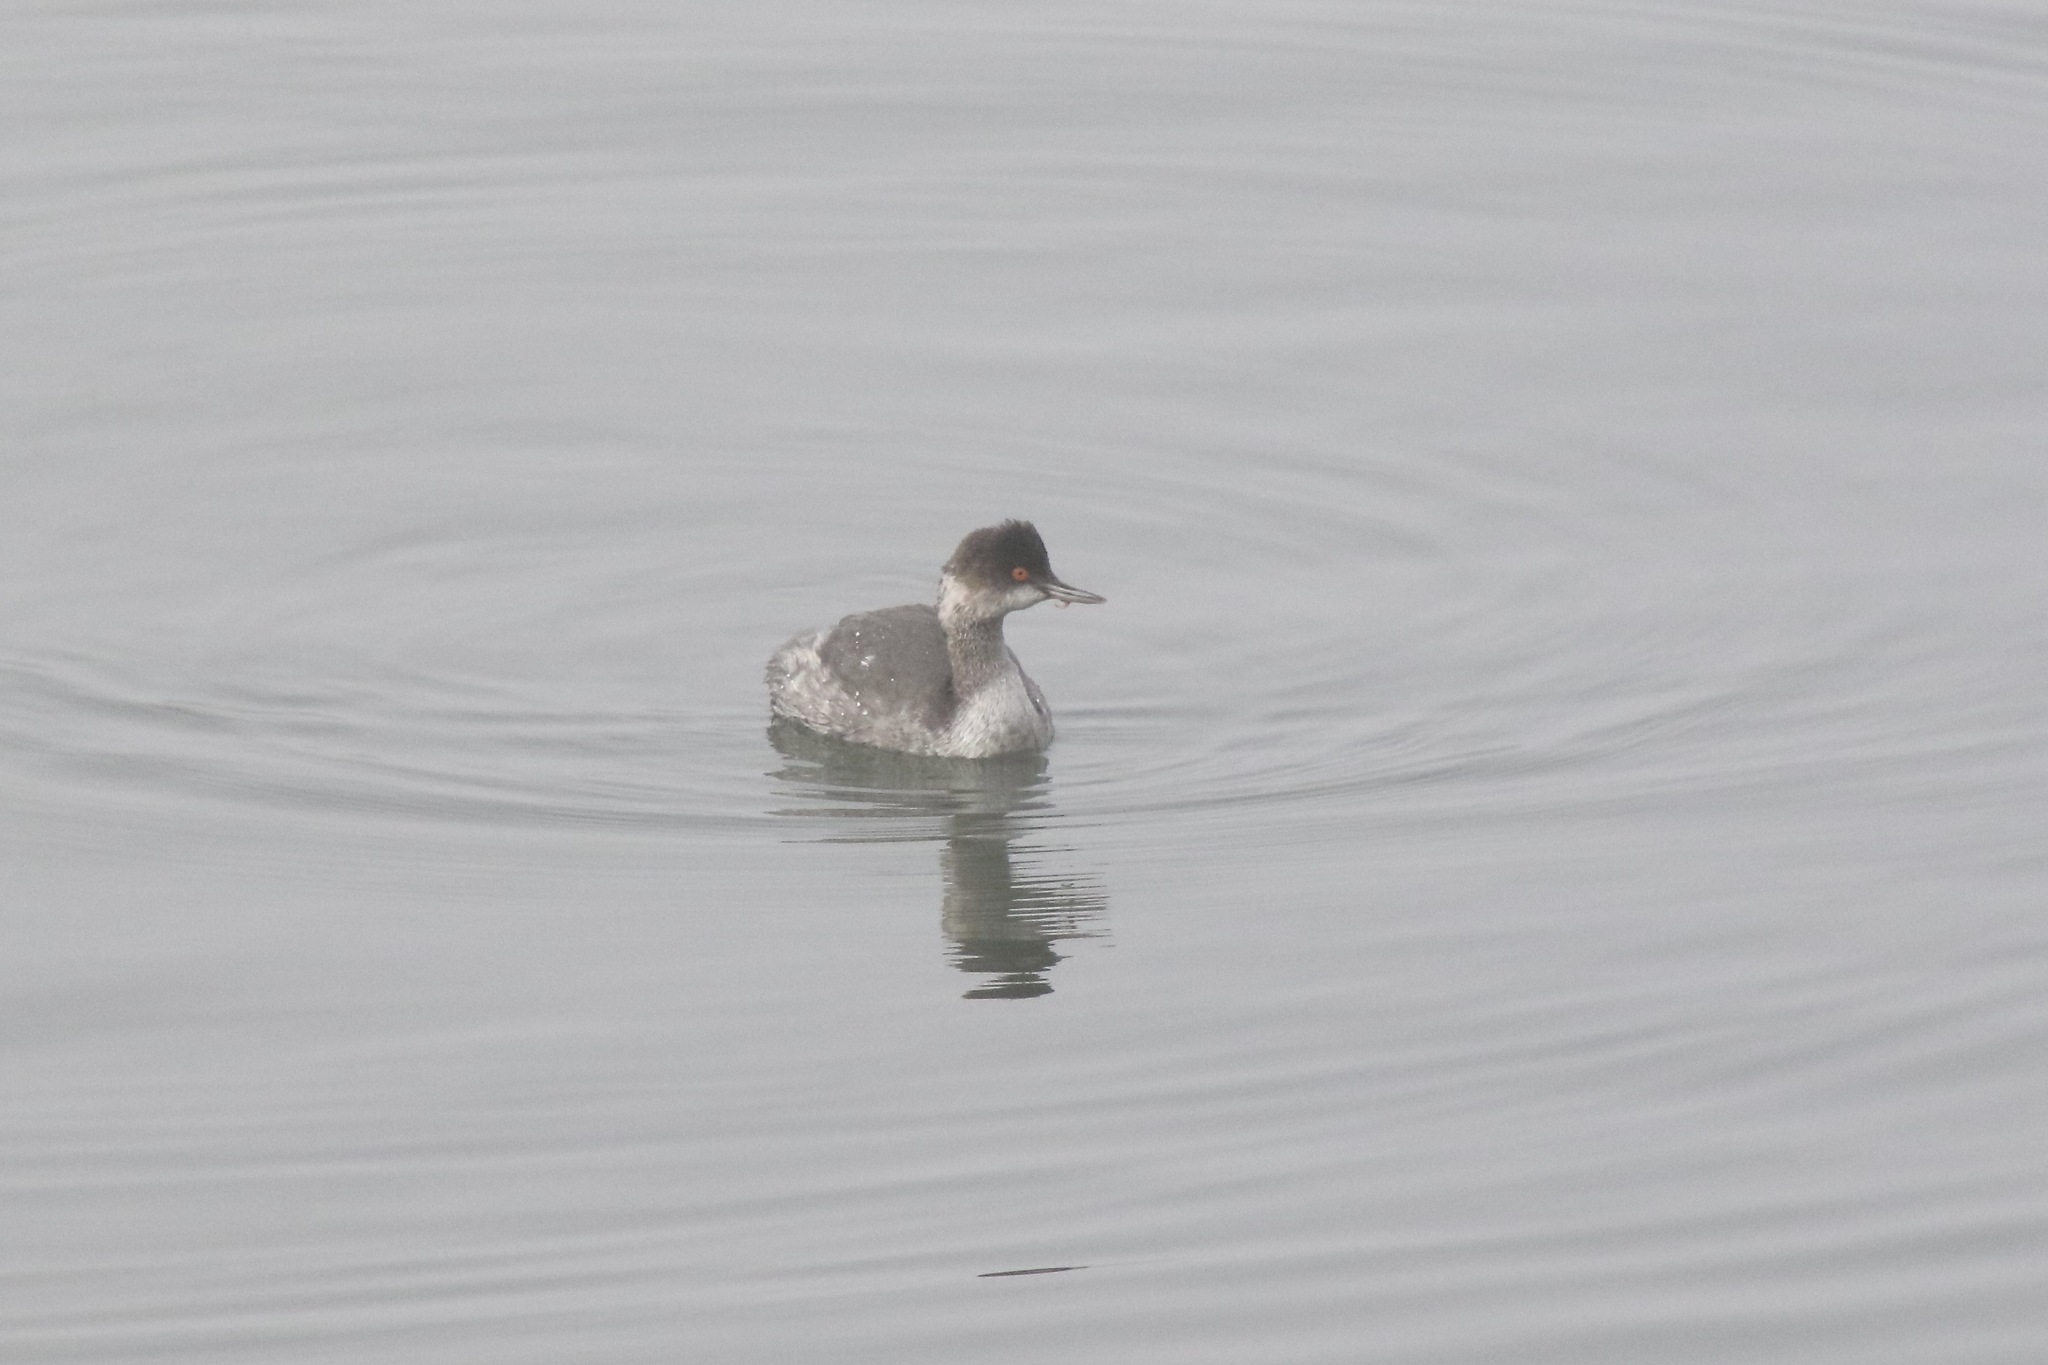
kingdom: Animalia
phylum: Chordata
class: Aves
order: Podicipediformes
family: Podicipedidae
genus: Podiceps
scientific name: Podiceps nigricollis
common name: Black-necked grebe
